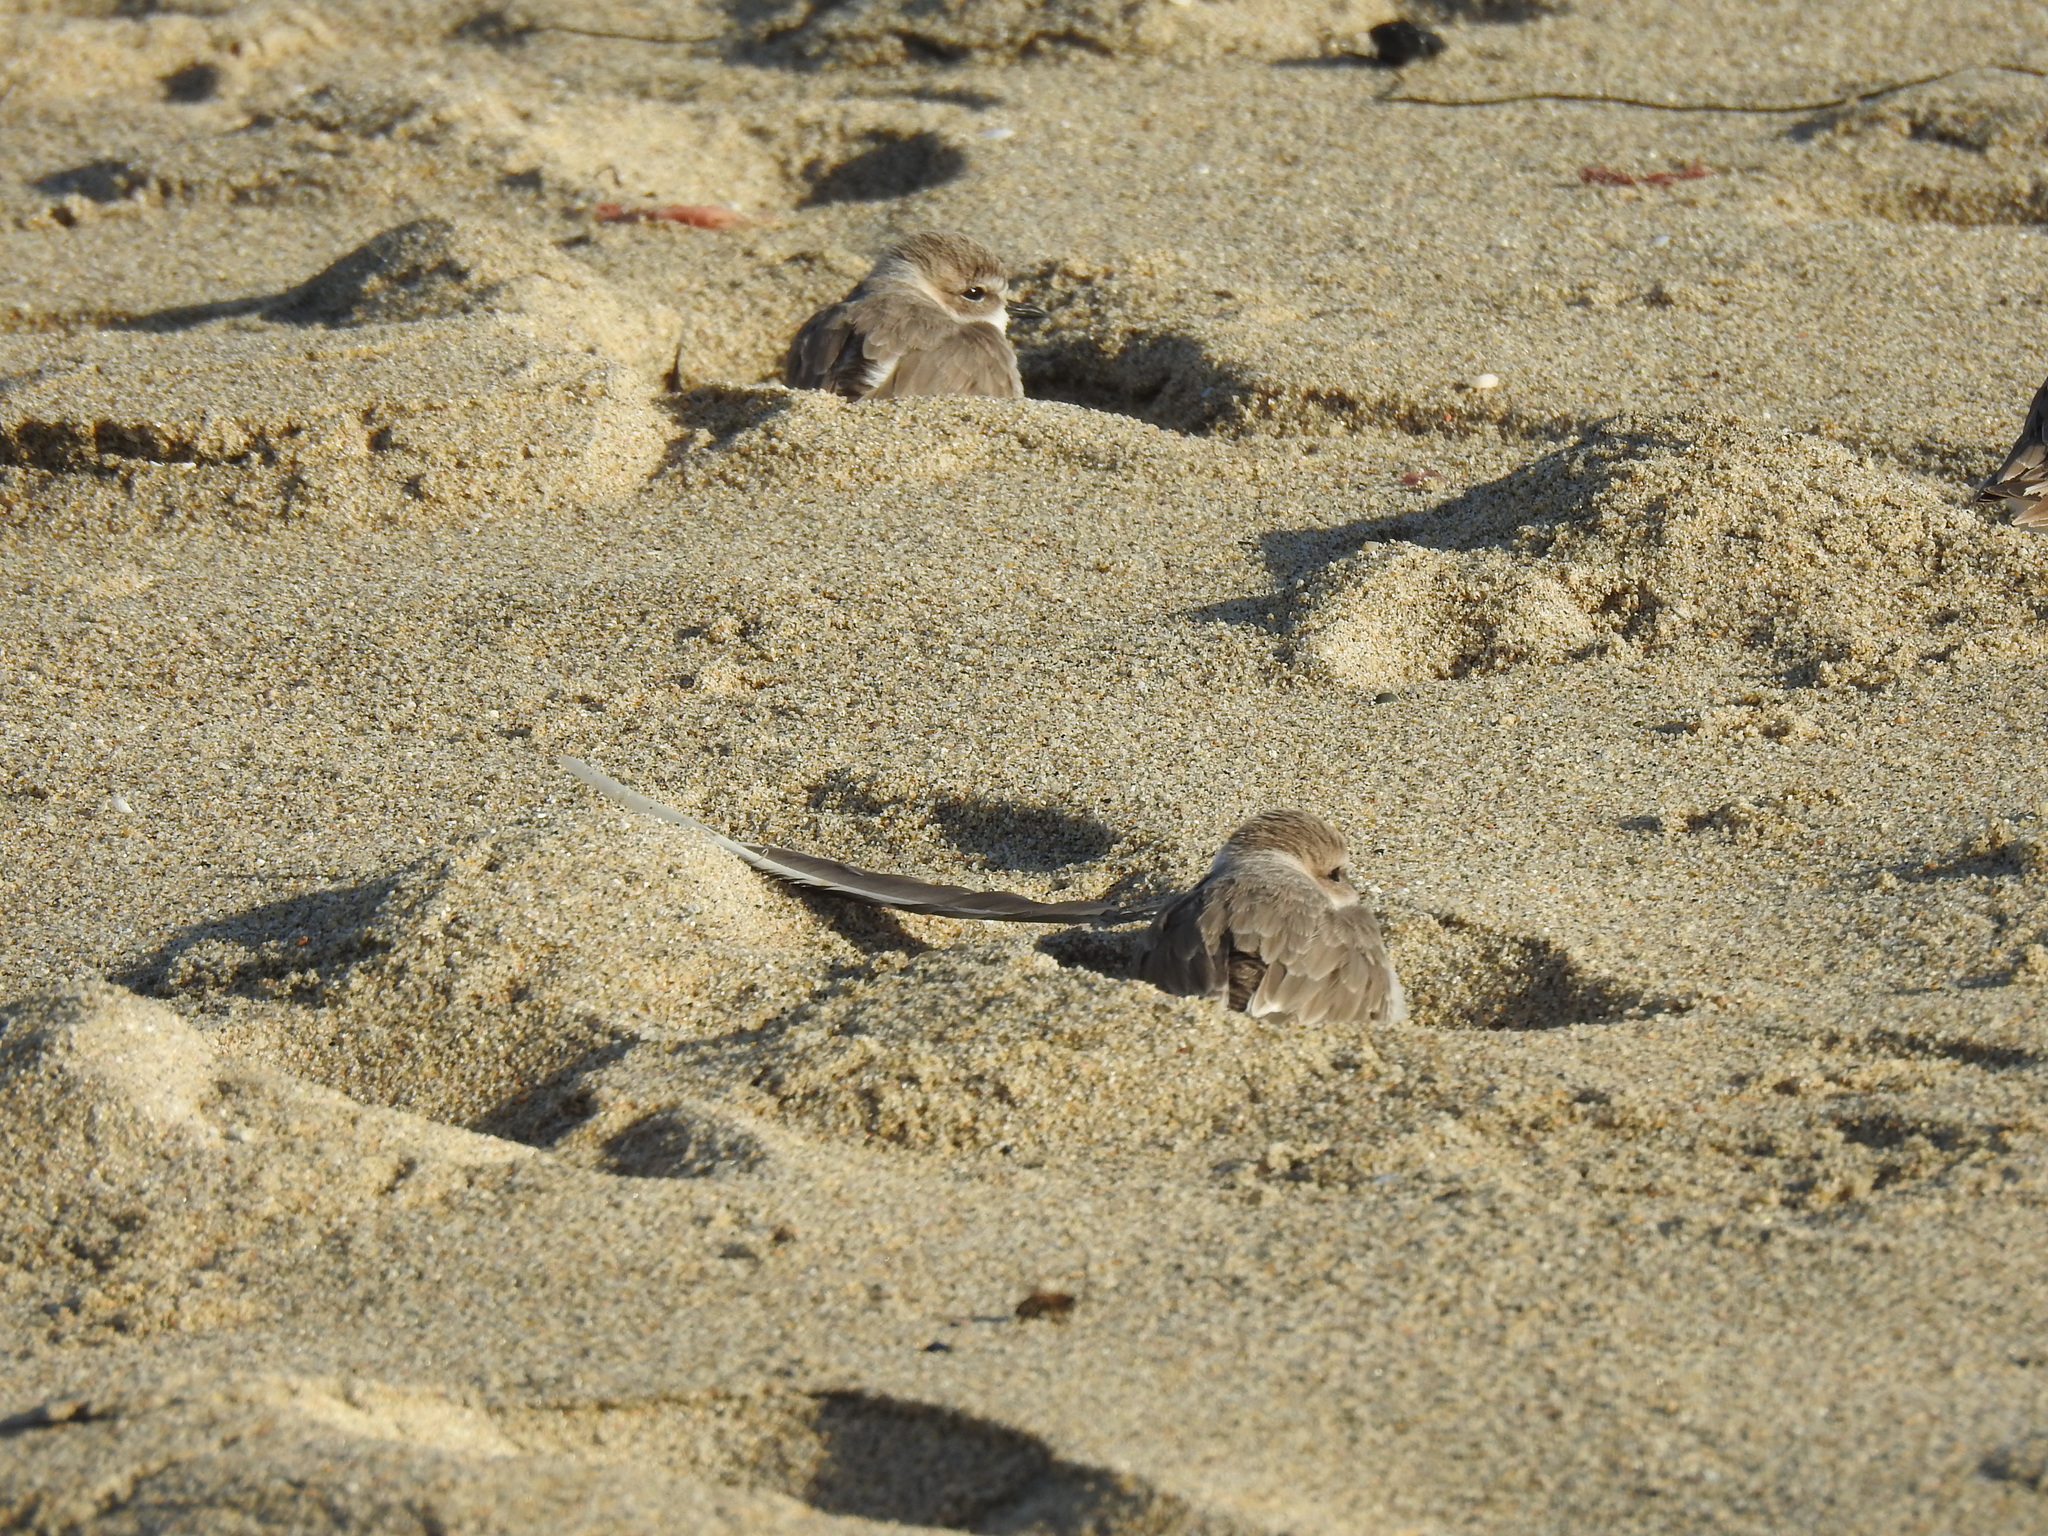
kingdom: Animalia
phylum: Chordata
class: Aves
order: Charadriiformes
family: Charadriidae
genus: Anarhynchus
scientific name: Anarhynchus
